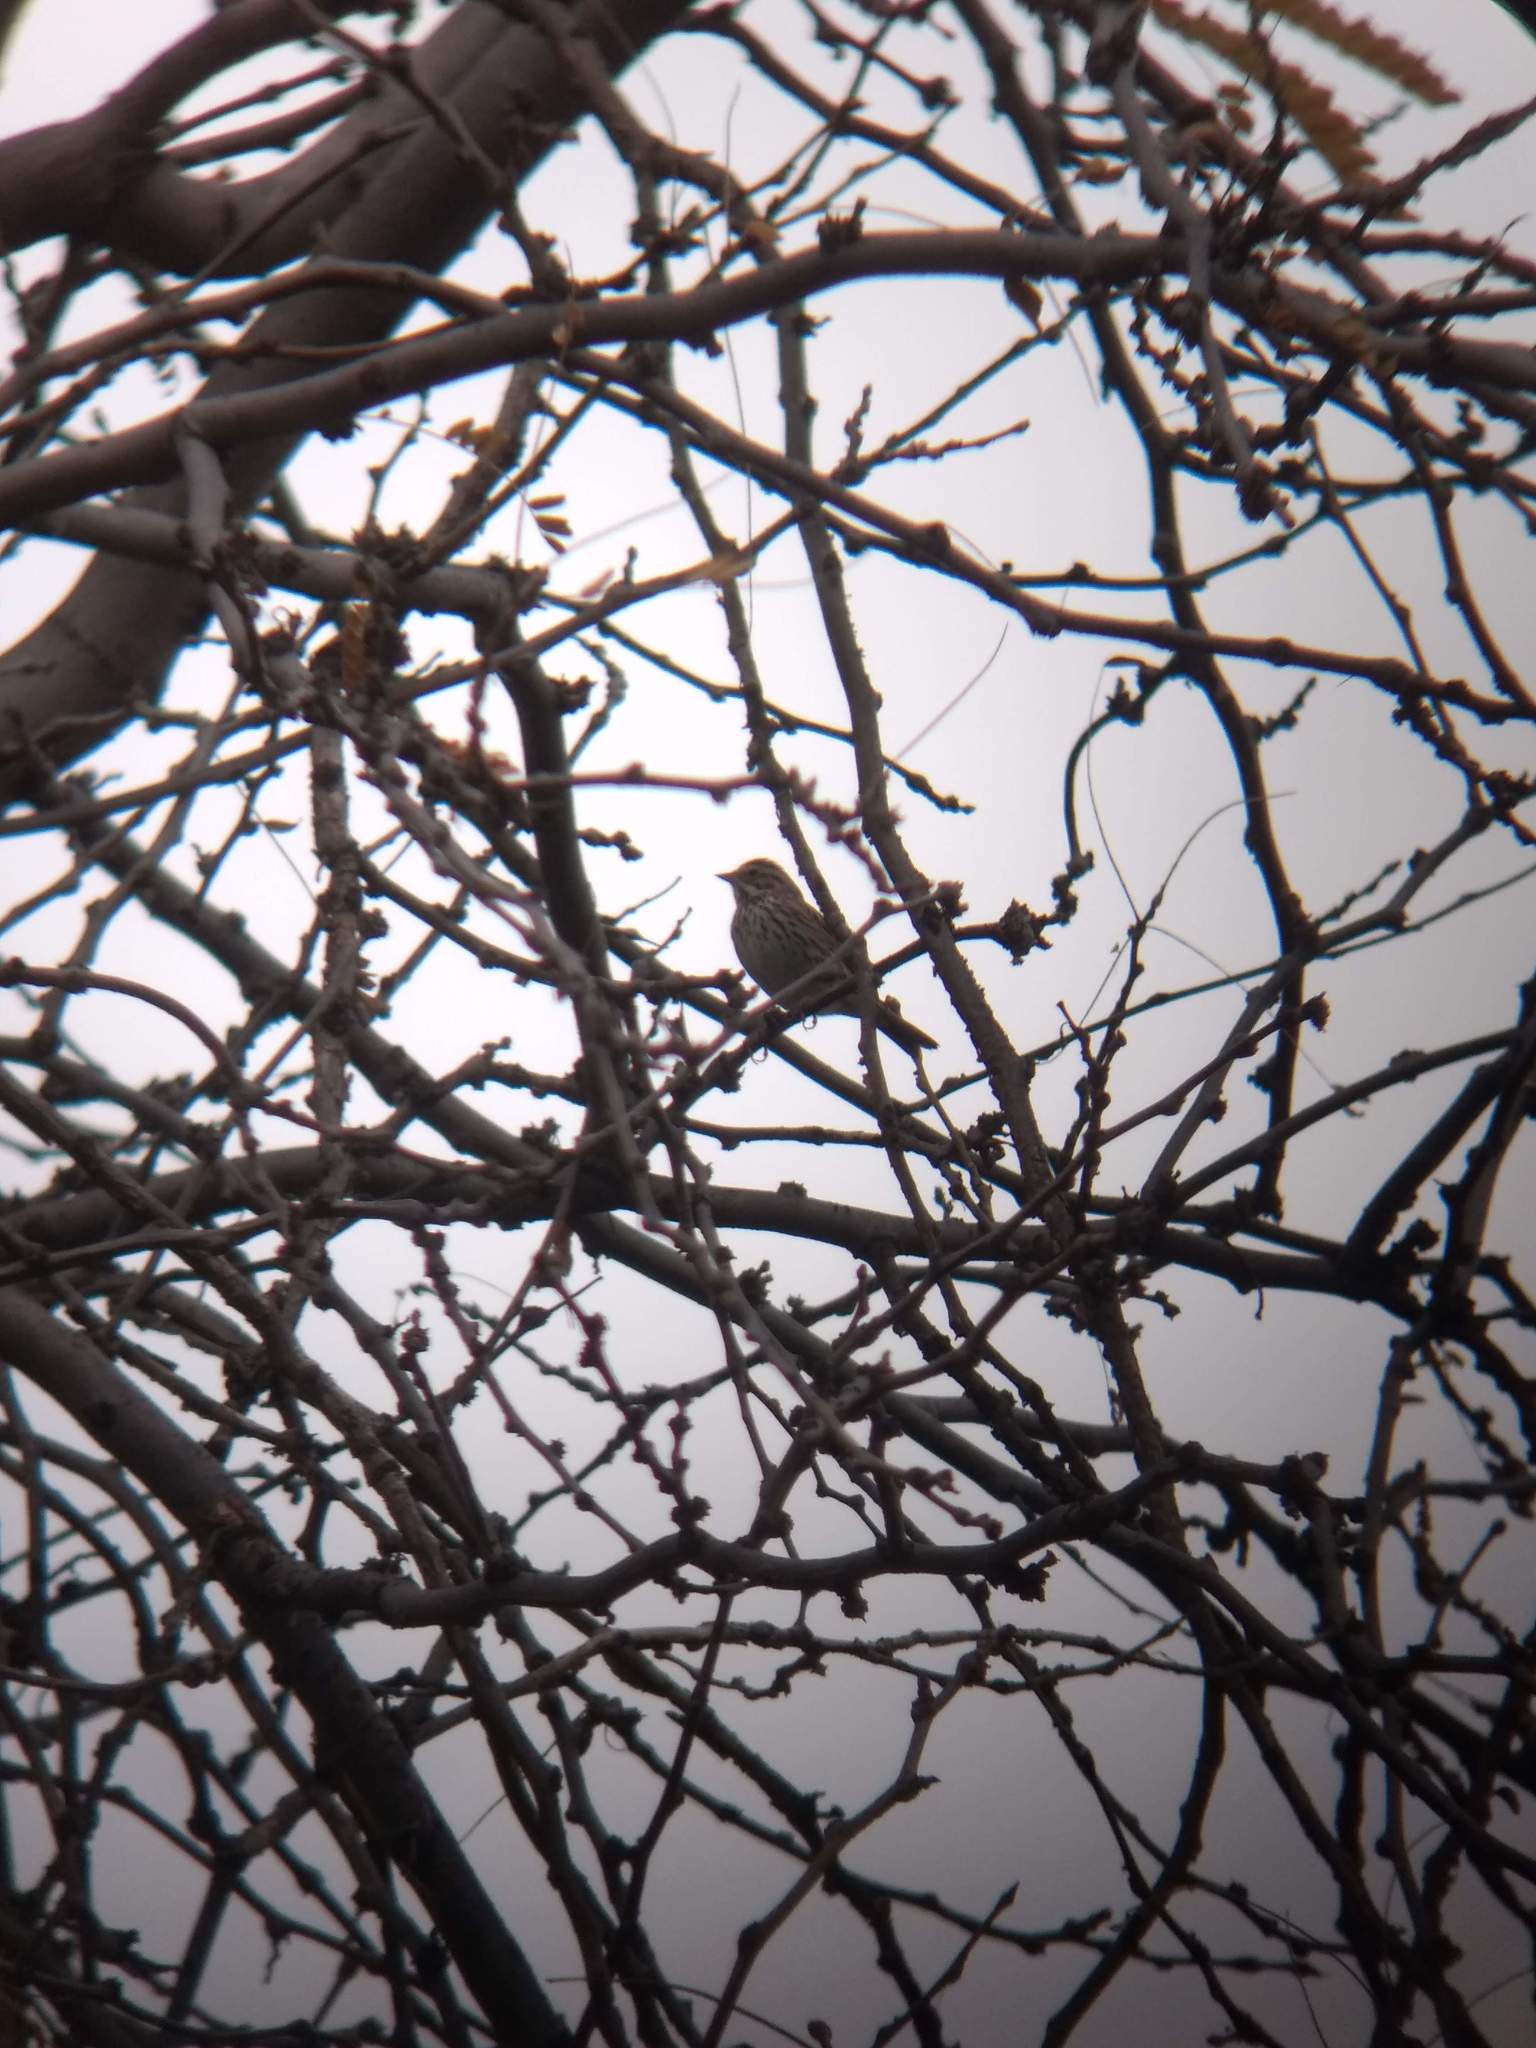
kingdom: Animalia
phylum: Chordata
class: Aves
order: Passeriformes
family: Passerellidae
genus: Passerculus
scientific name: Passerculus sandwichensis
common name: Savannah sparrow
